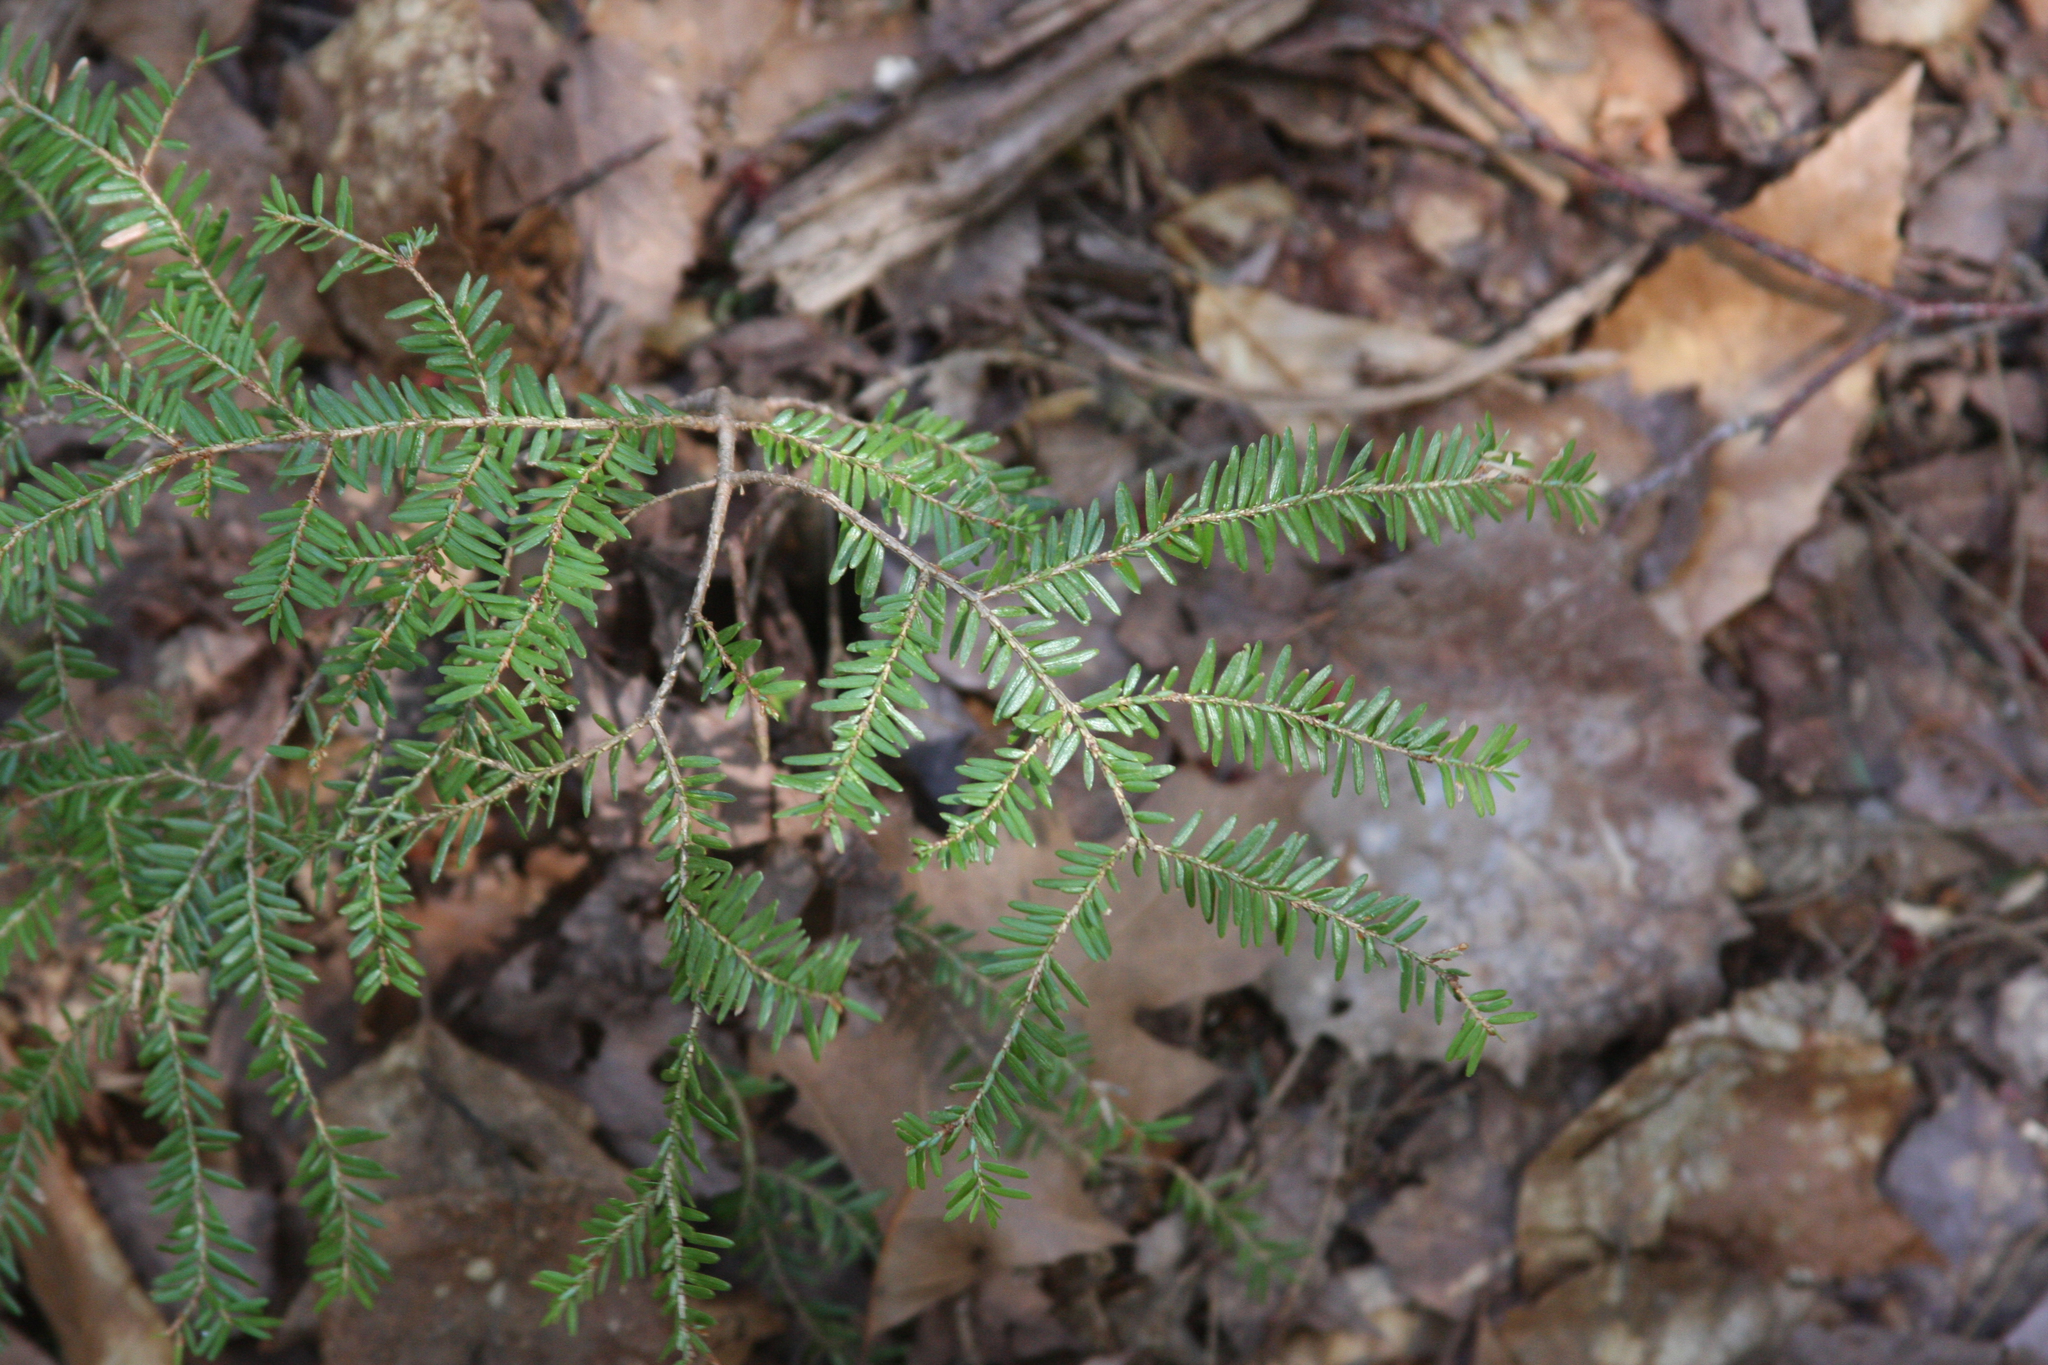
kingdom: Plantae
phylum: Tracheophyta
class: Pinopsida
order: Pinales
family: Pinaceae
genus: Tsuga
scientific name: Tsuga canadensis
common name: Eastern hemlock
